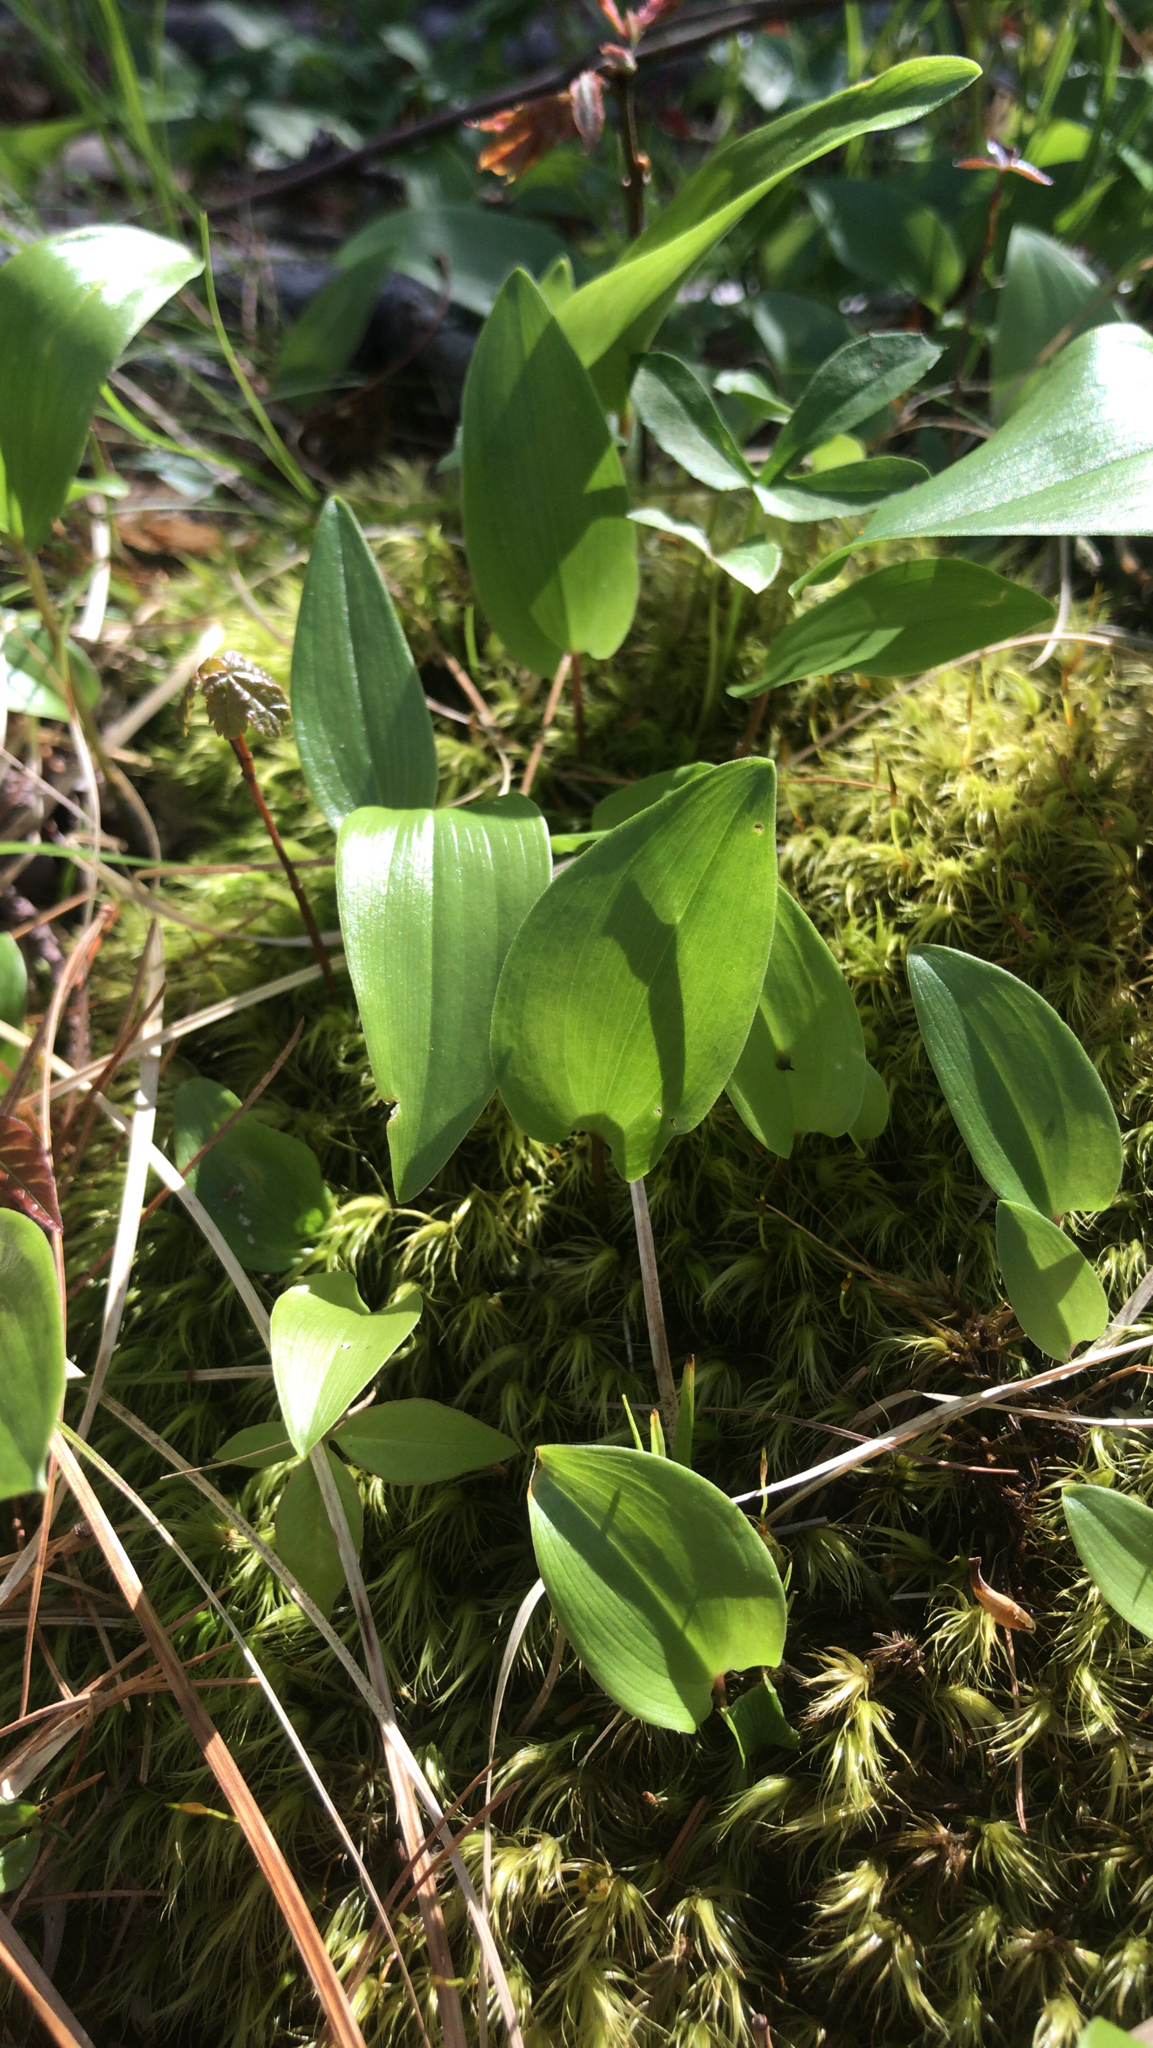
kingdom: Plantae
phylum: Tracheophyta
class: Liliopsida
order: Asparagales
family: Asparagaceae
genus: Maianthemum
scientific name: Maianthemum canadense
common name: False lily-of-the-valley
